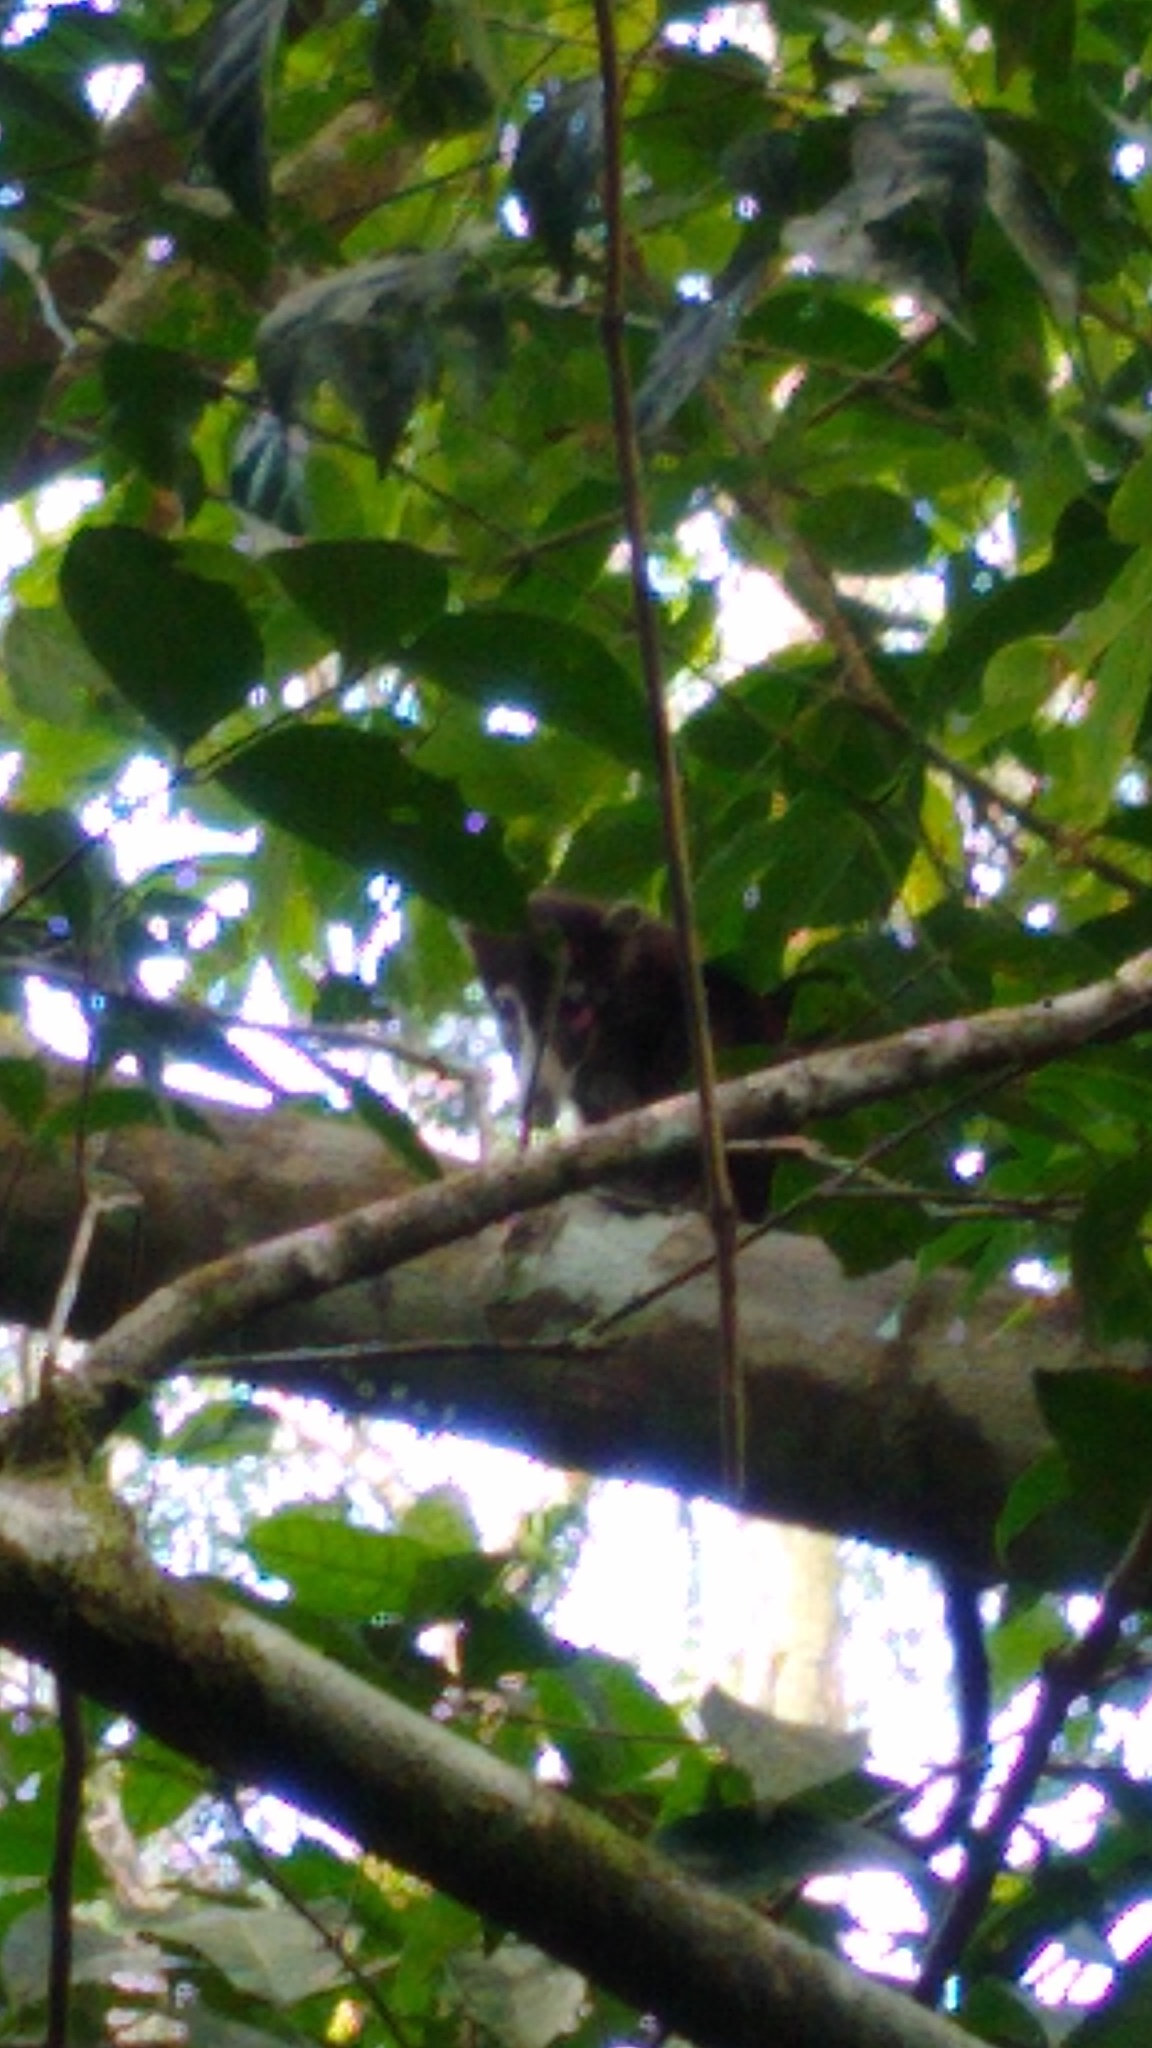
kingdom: Animalia
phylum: Chordata
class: Mammalia
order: Carnivora
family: Procyonidae
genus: Nasua
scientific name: Nasua narica
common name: White-nosed coati
